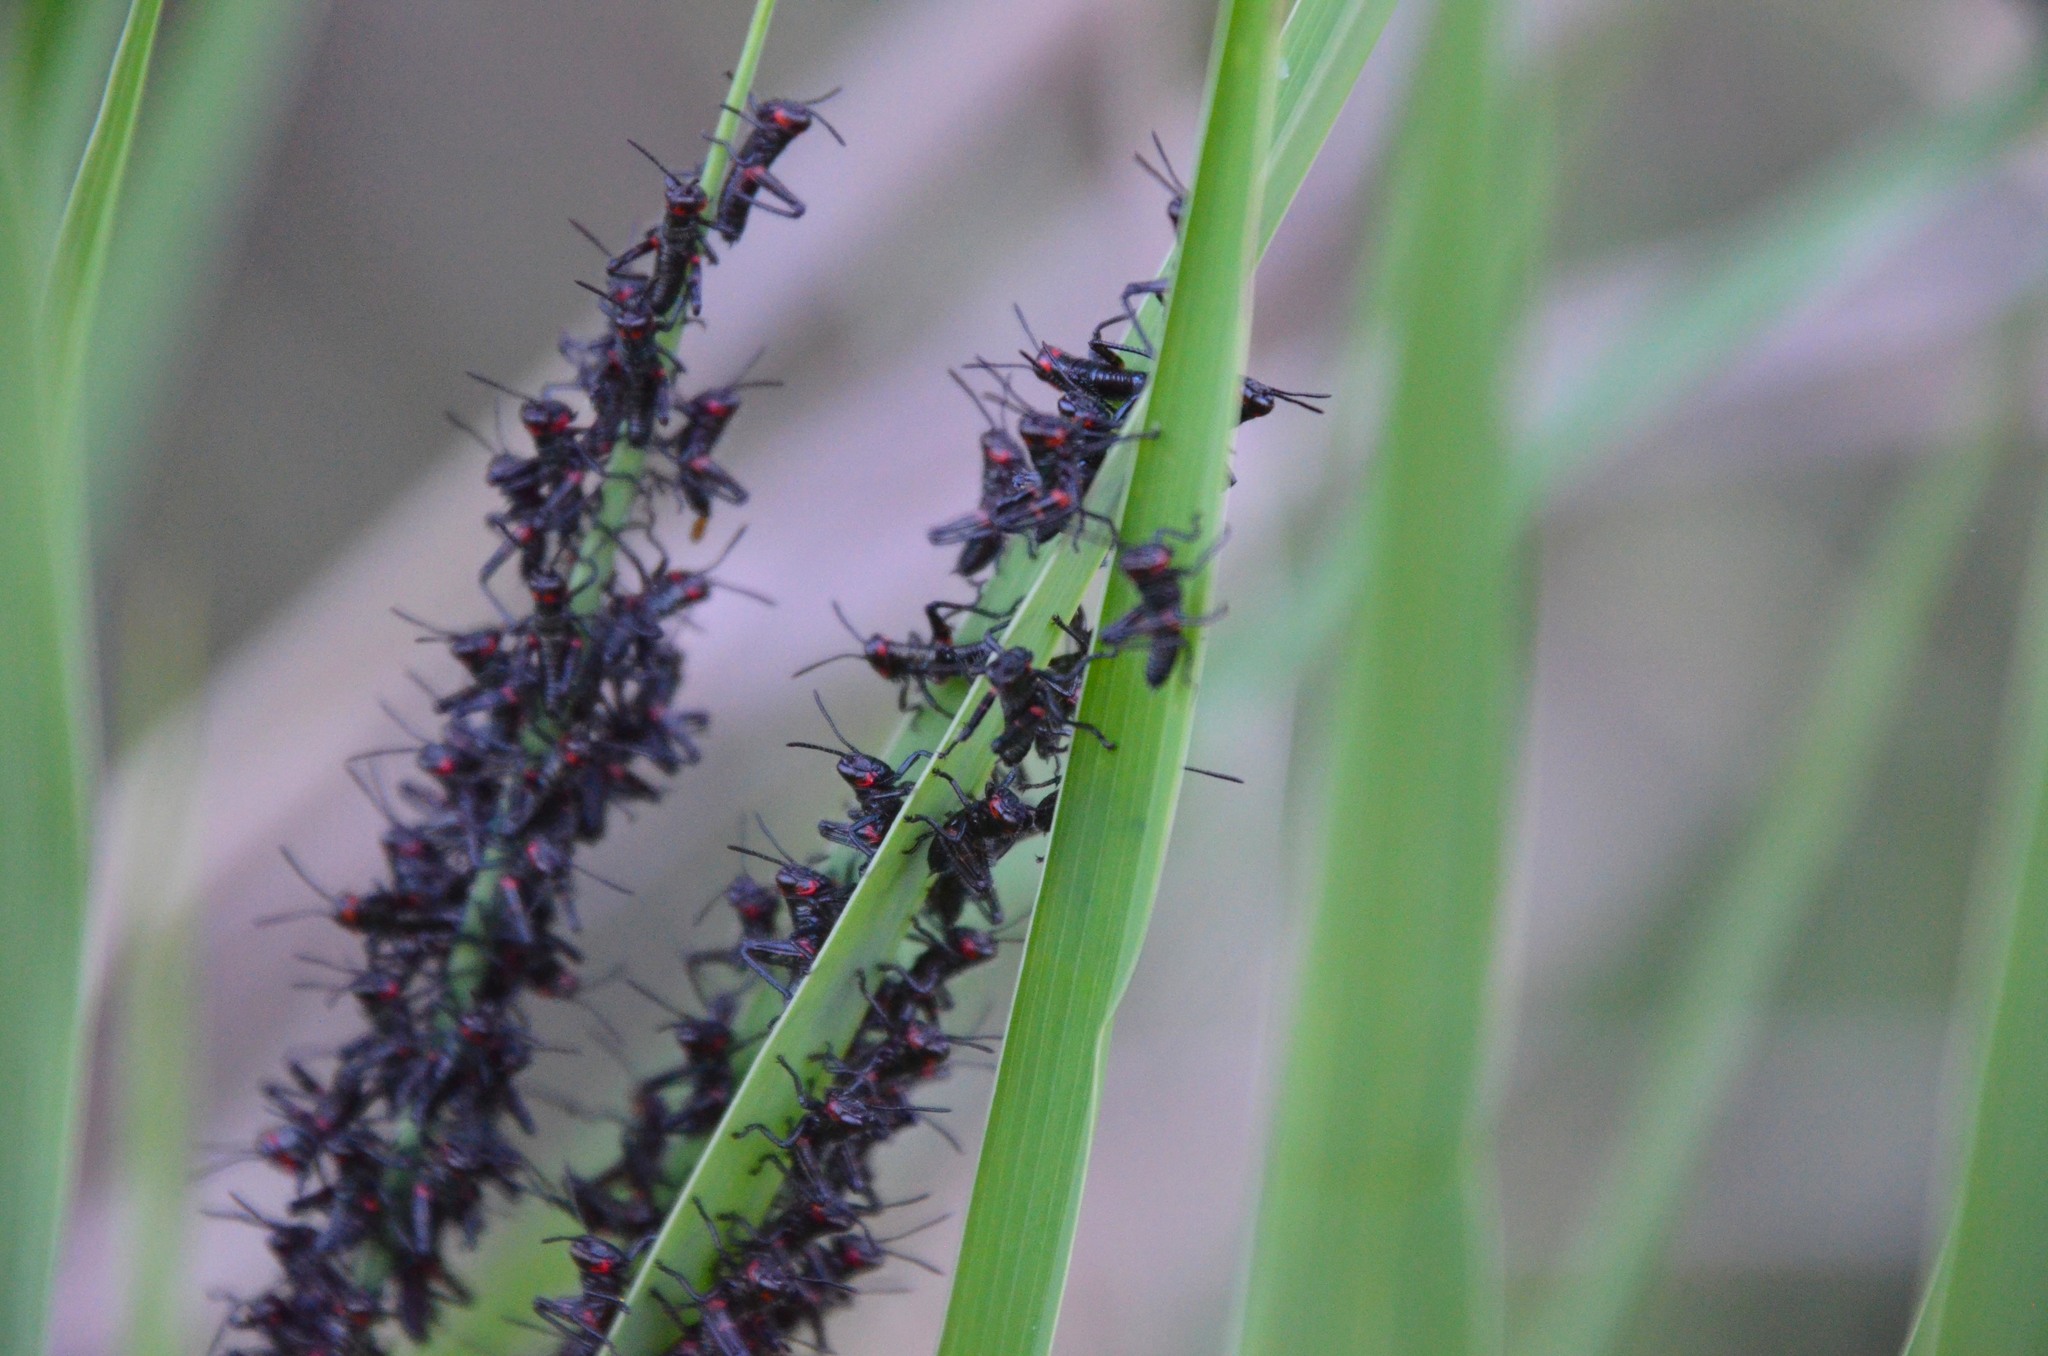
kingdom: Animalia
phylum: Arthropoda
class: Insecta
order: Orthoptera
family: Romaleidae
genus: Chromacris
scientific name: Chromacris speciosa
